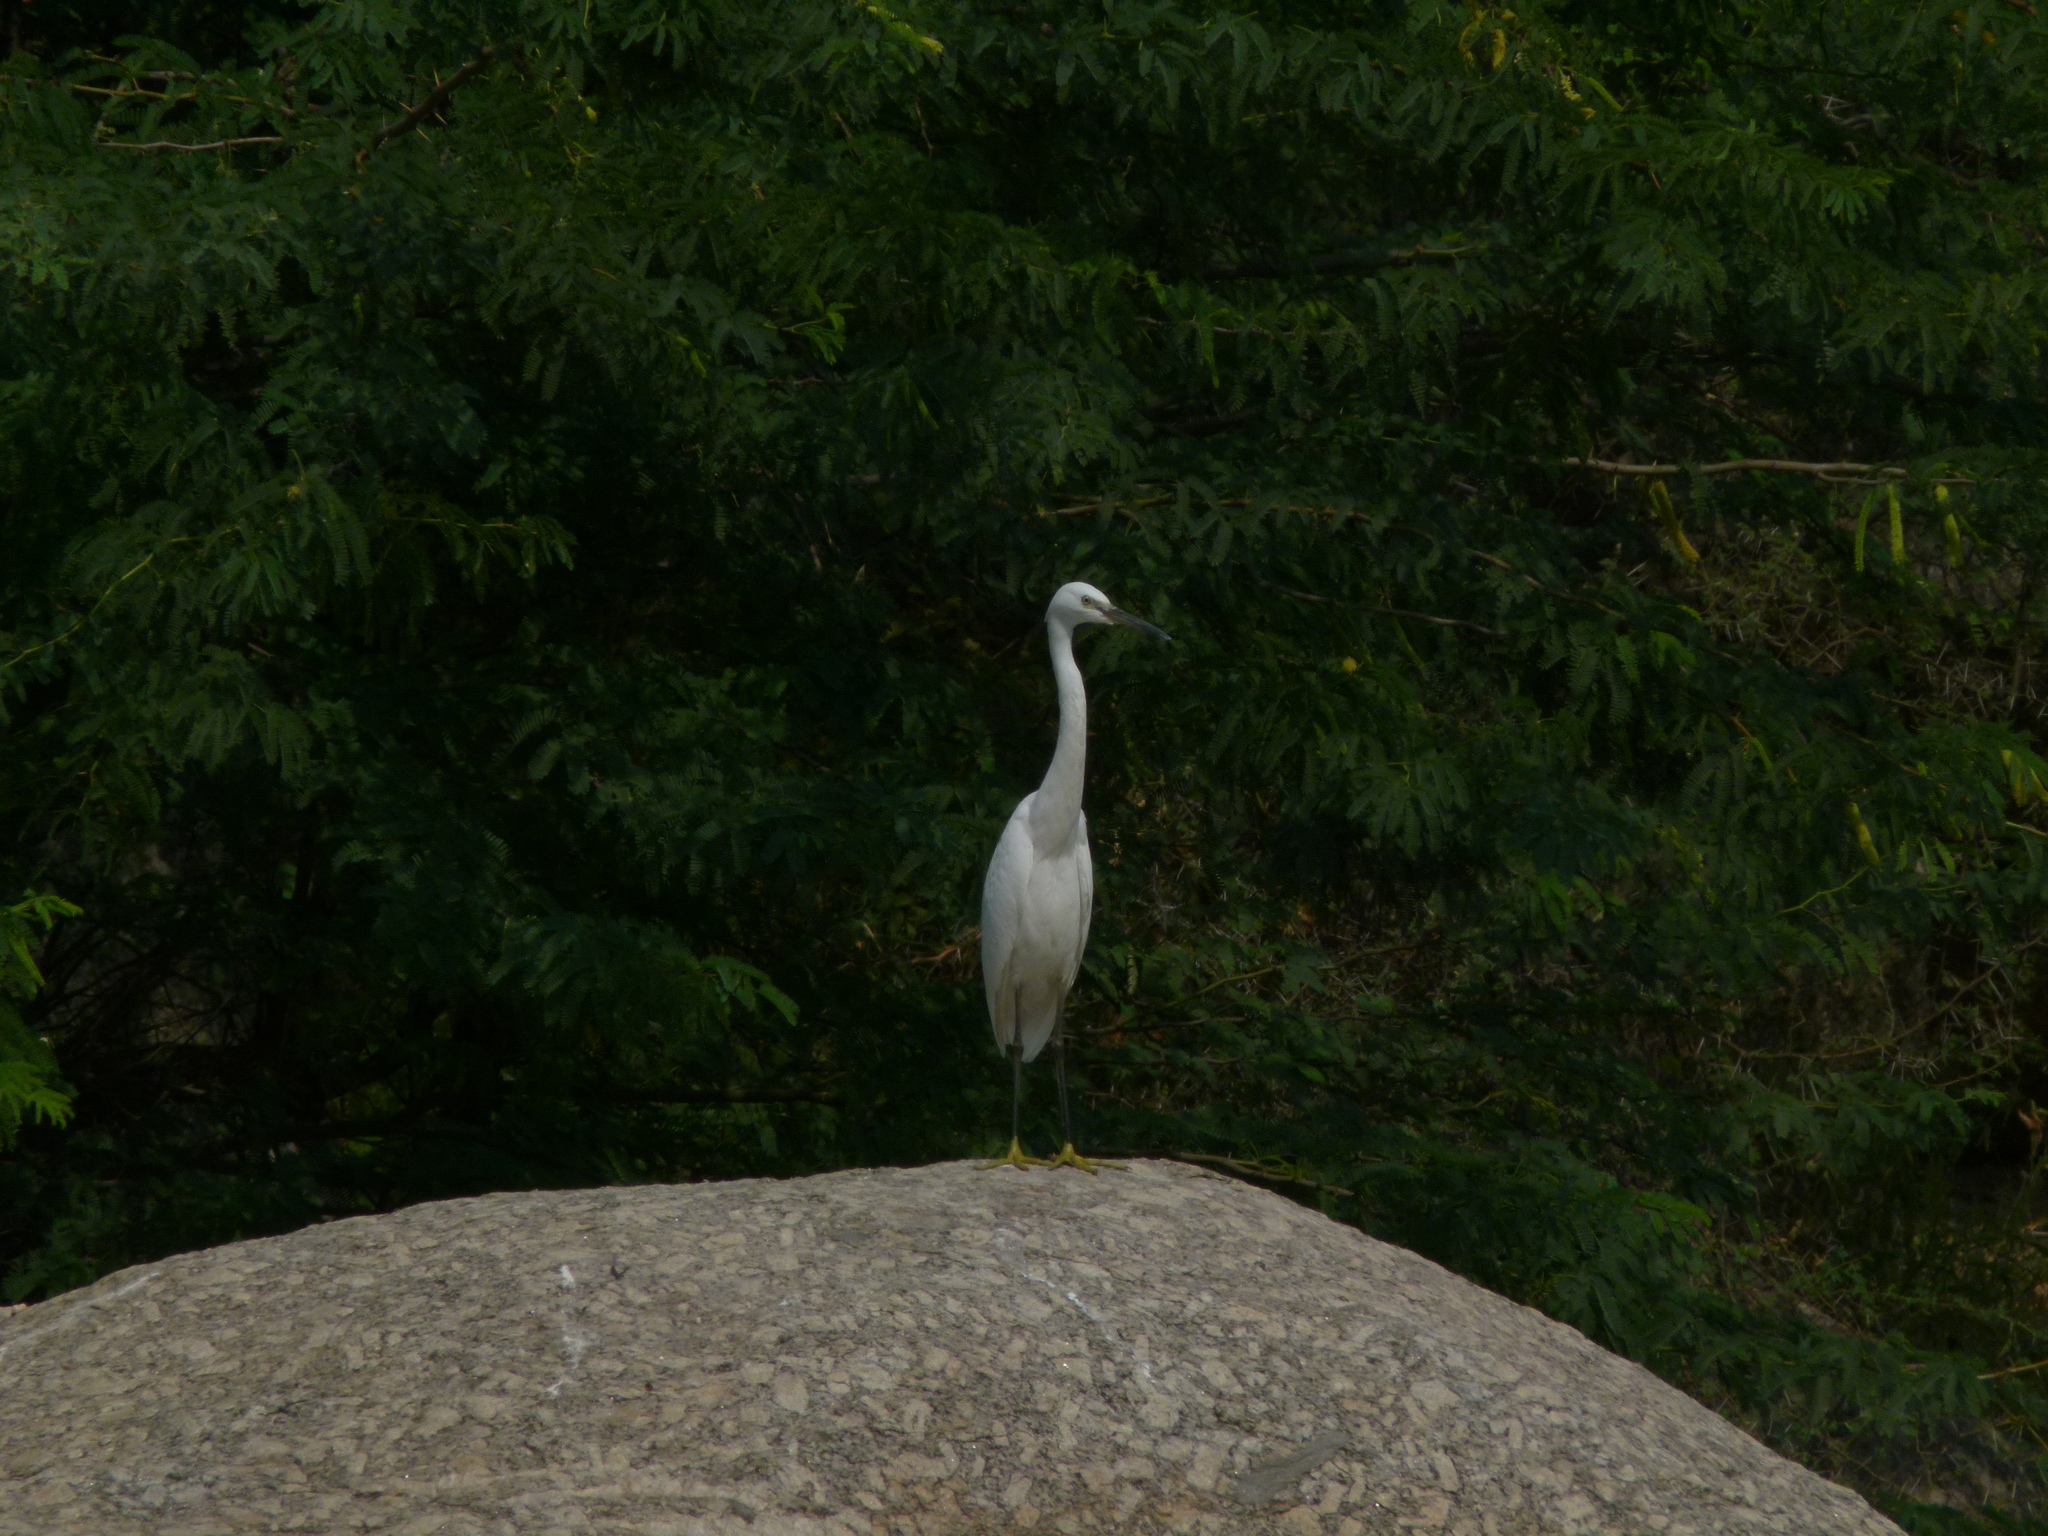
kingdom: Animalia
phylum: Chordata
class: Aves
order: Pelecaniformes
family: Ardeidae
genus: Egretta
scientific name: Egretta garzetta
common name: Little egret
